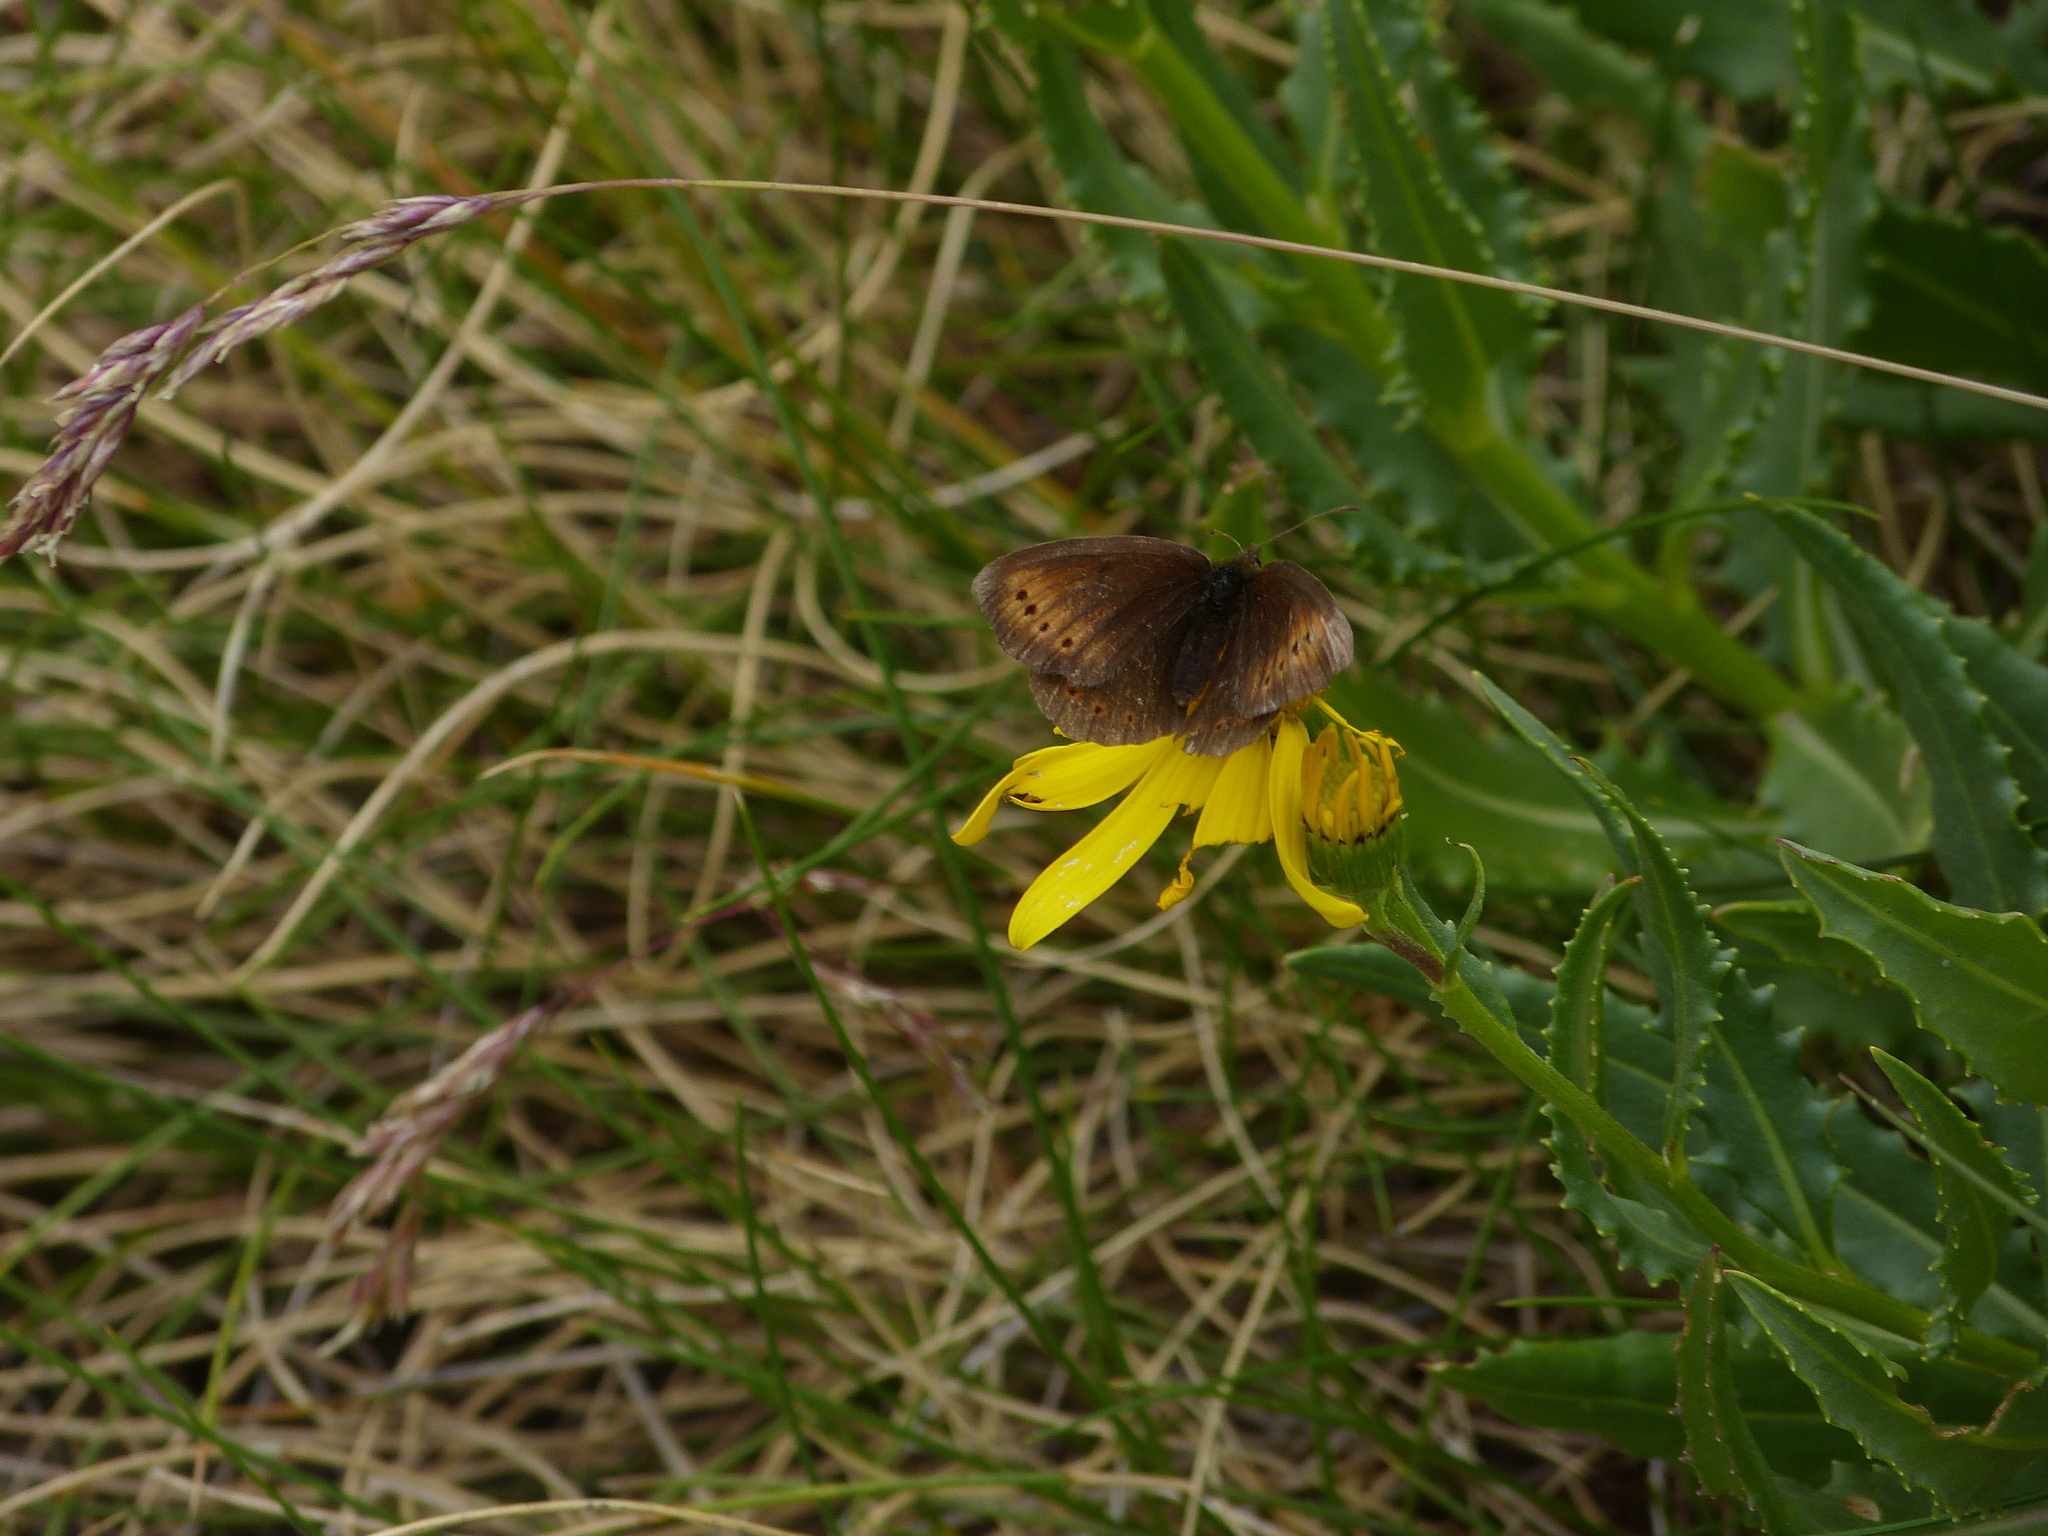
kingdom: Animalia
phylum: Arthropoda
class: Insecta
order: Lepidoptera
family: Nymphalidae
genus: Erebia
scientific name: Erebia epiphron
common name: Mountain ringlet
